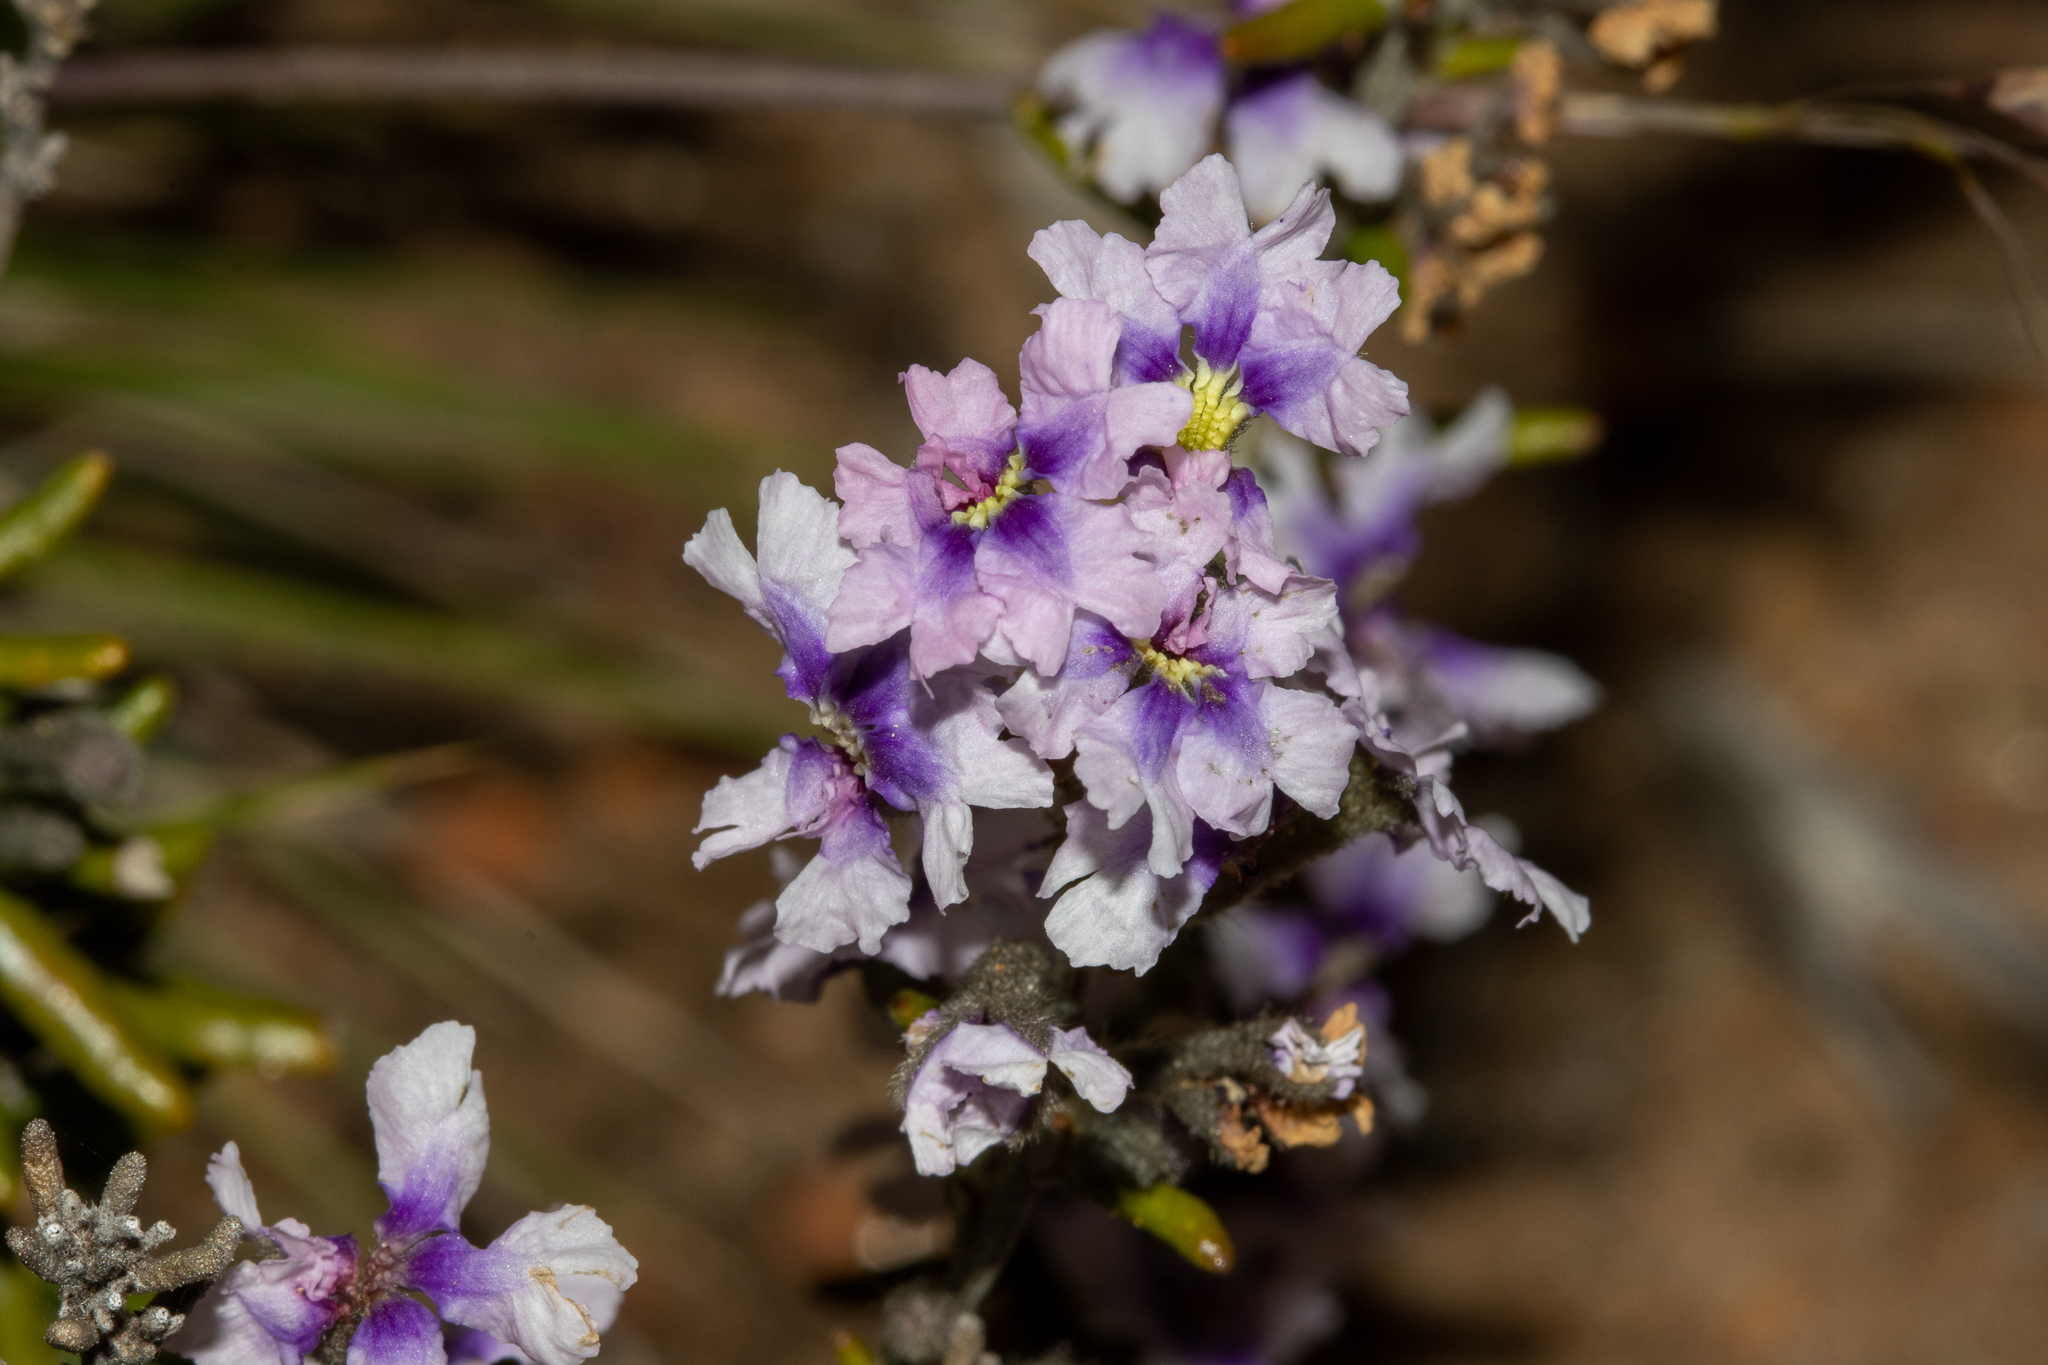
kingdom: Plantae
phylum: Tracheophyta
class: Magnoliopsida
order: Asterales
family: Goodeniaceae
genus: Dampiera
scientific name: Dampiera rosmarinifolia
